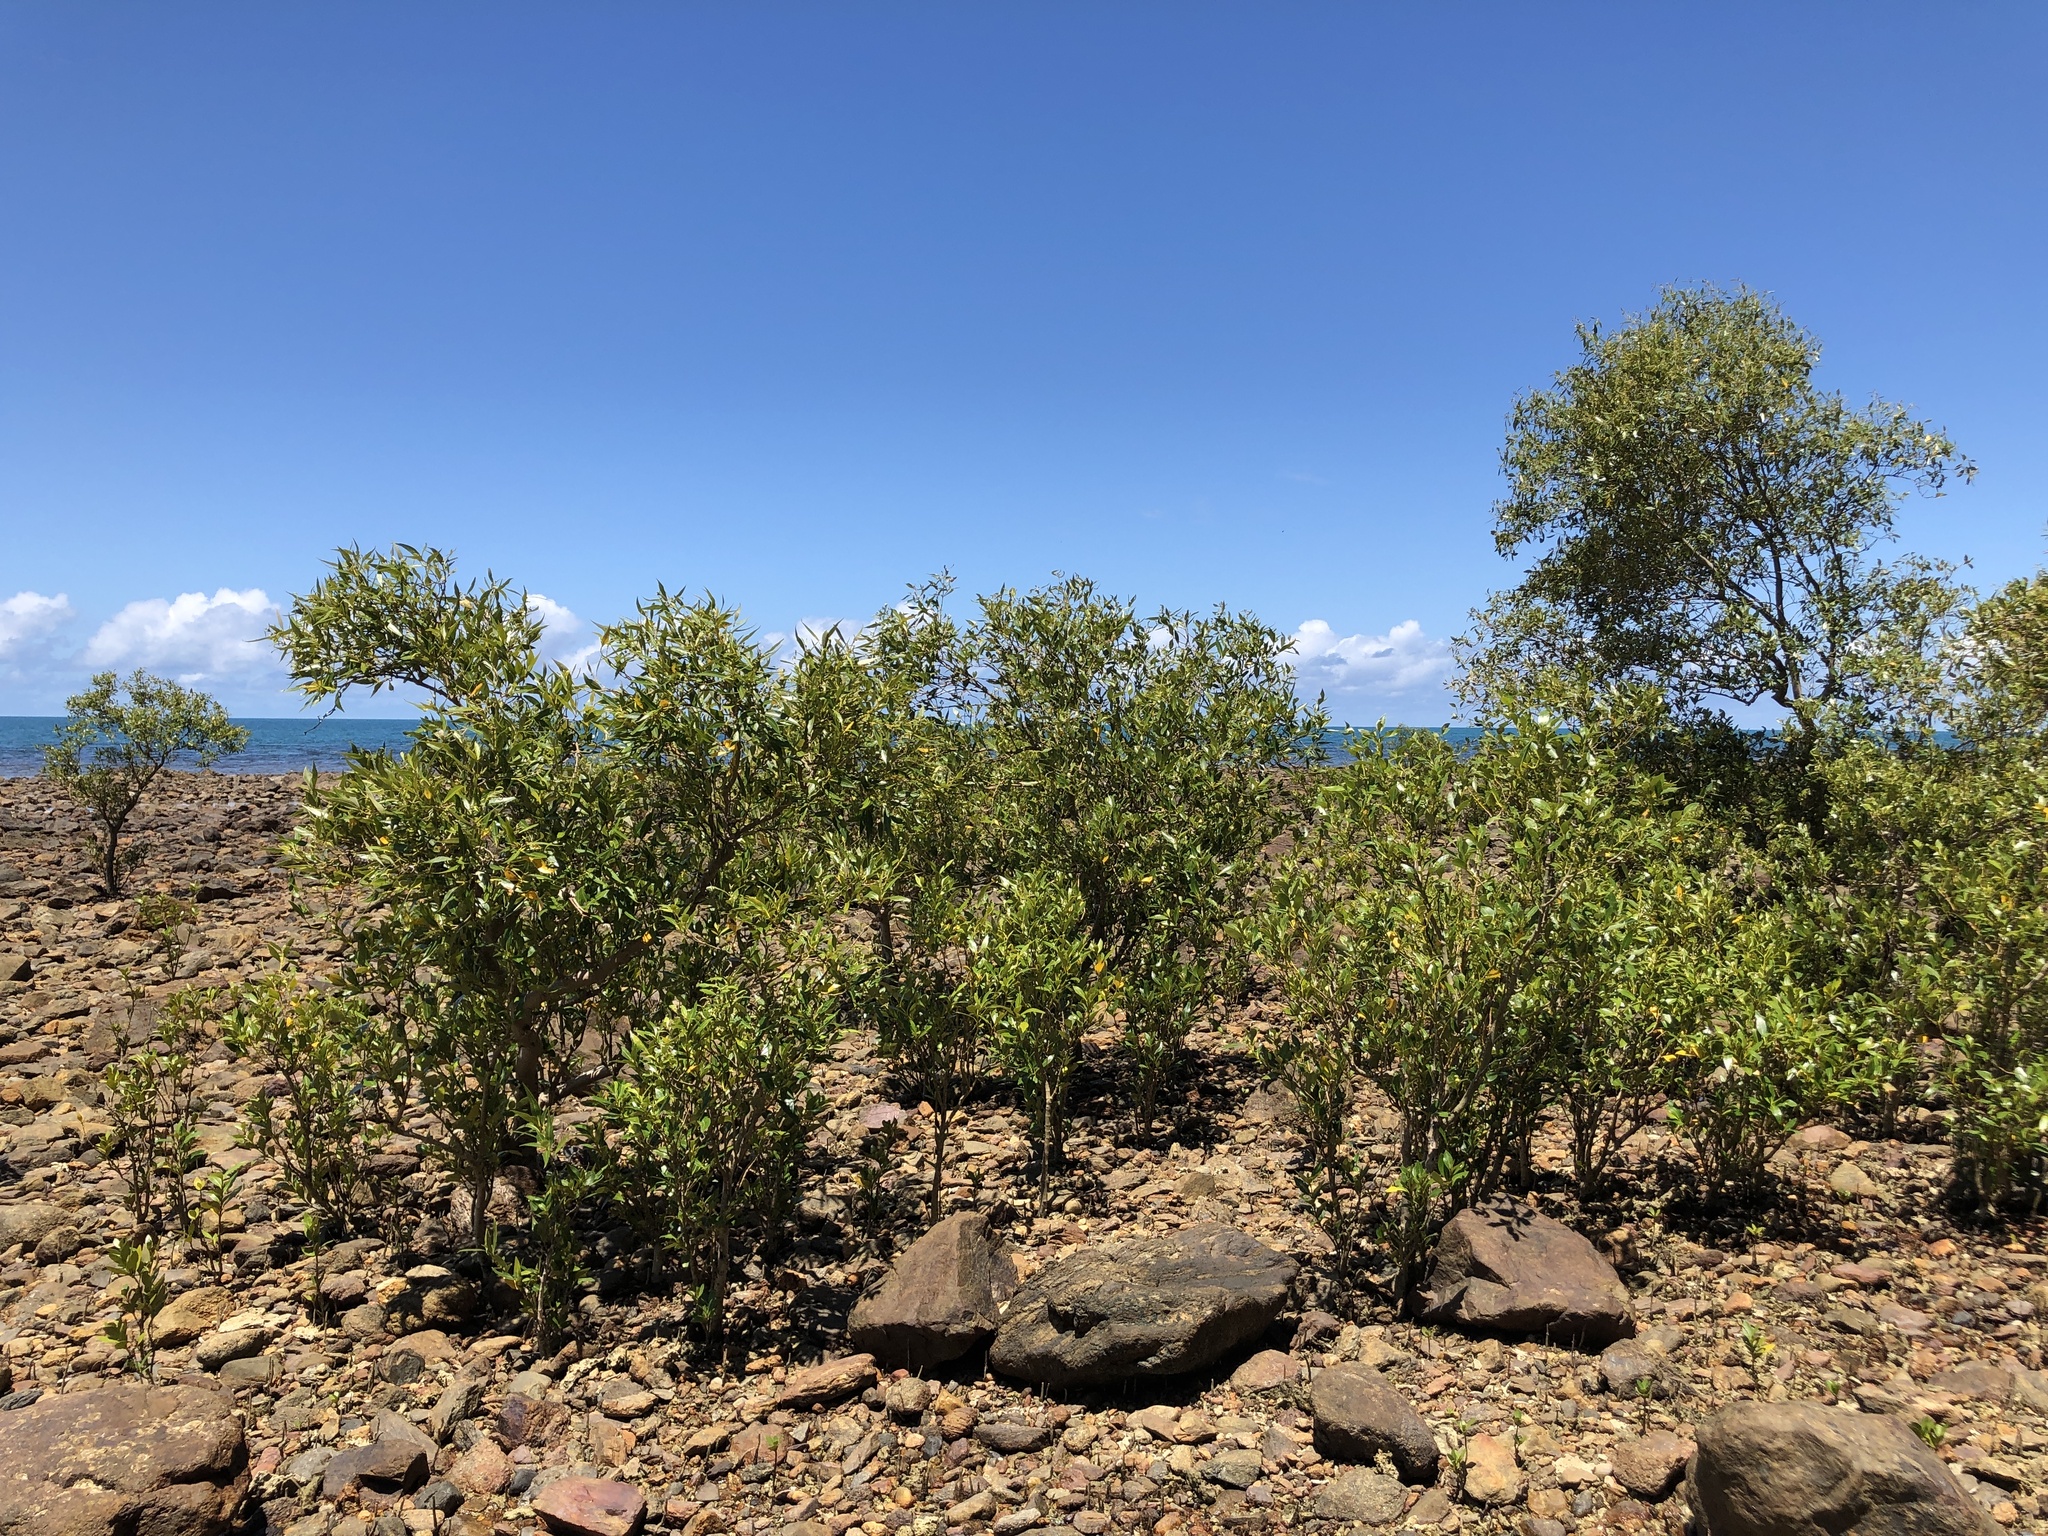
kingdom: Plantae
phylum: Tracheophyta
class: Magnoliopsida
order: Lamiales
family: Acanthaceae
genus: Avicennia
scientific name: Avicennia marina
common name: Gray mangrove
